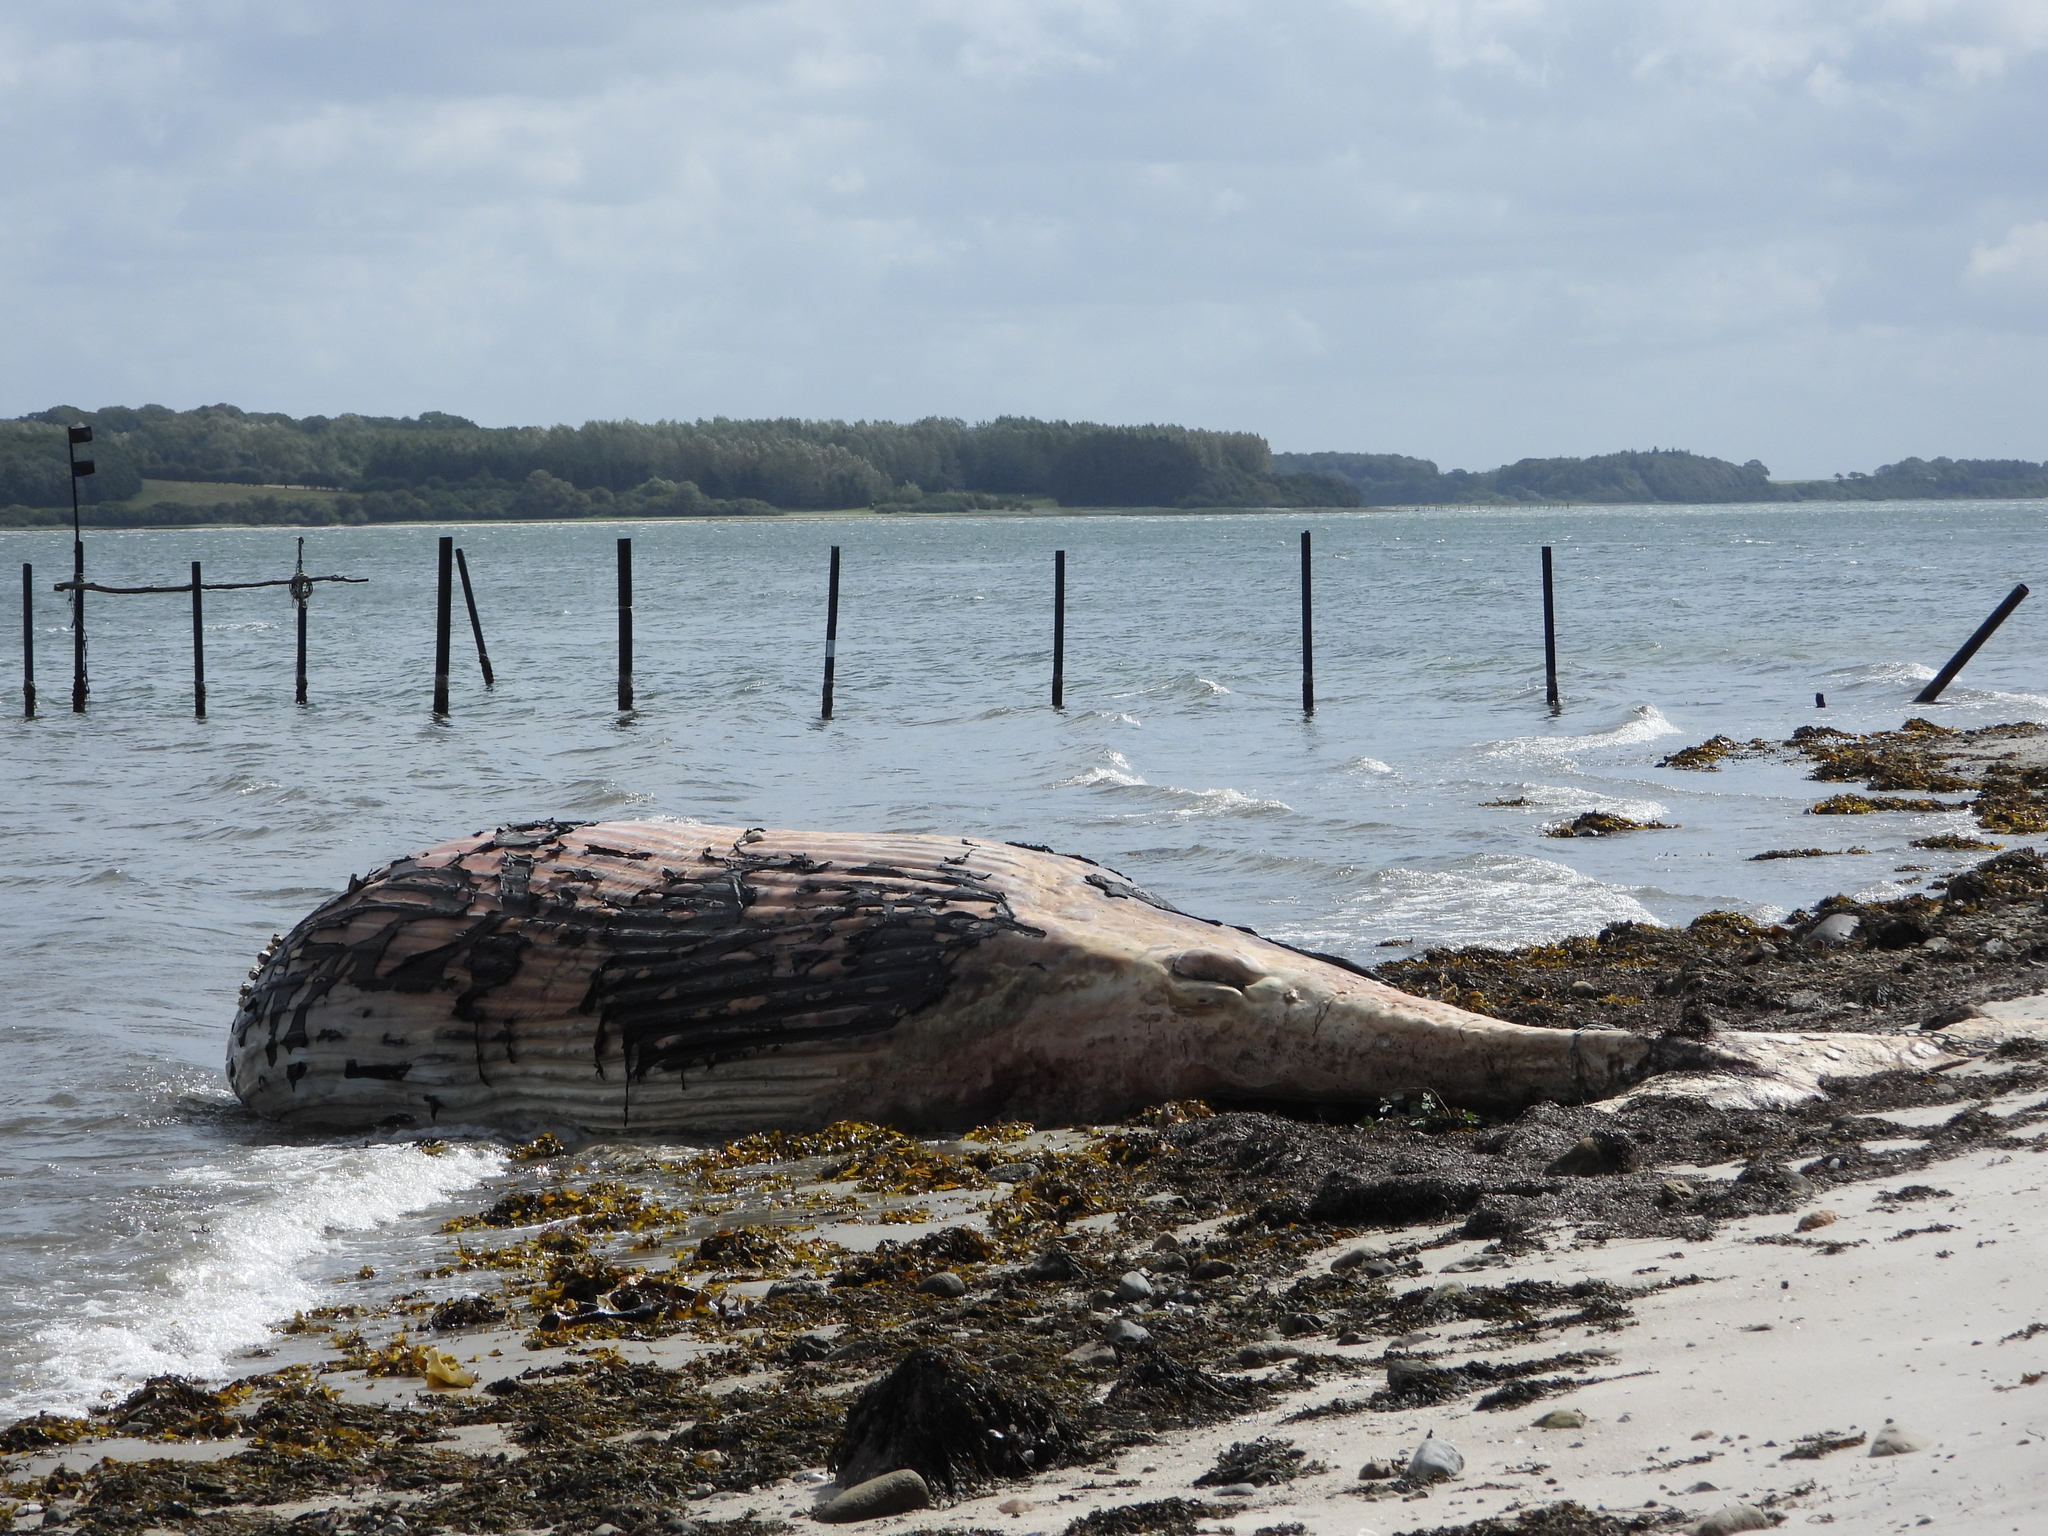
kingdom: Animalia
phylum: Chordata
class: Mammalia
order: Cetacea
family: Balaenopteridae
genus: Megaptera
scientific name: Megaptera novaeangliae
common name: Humpback whale
